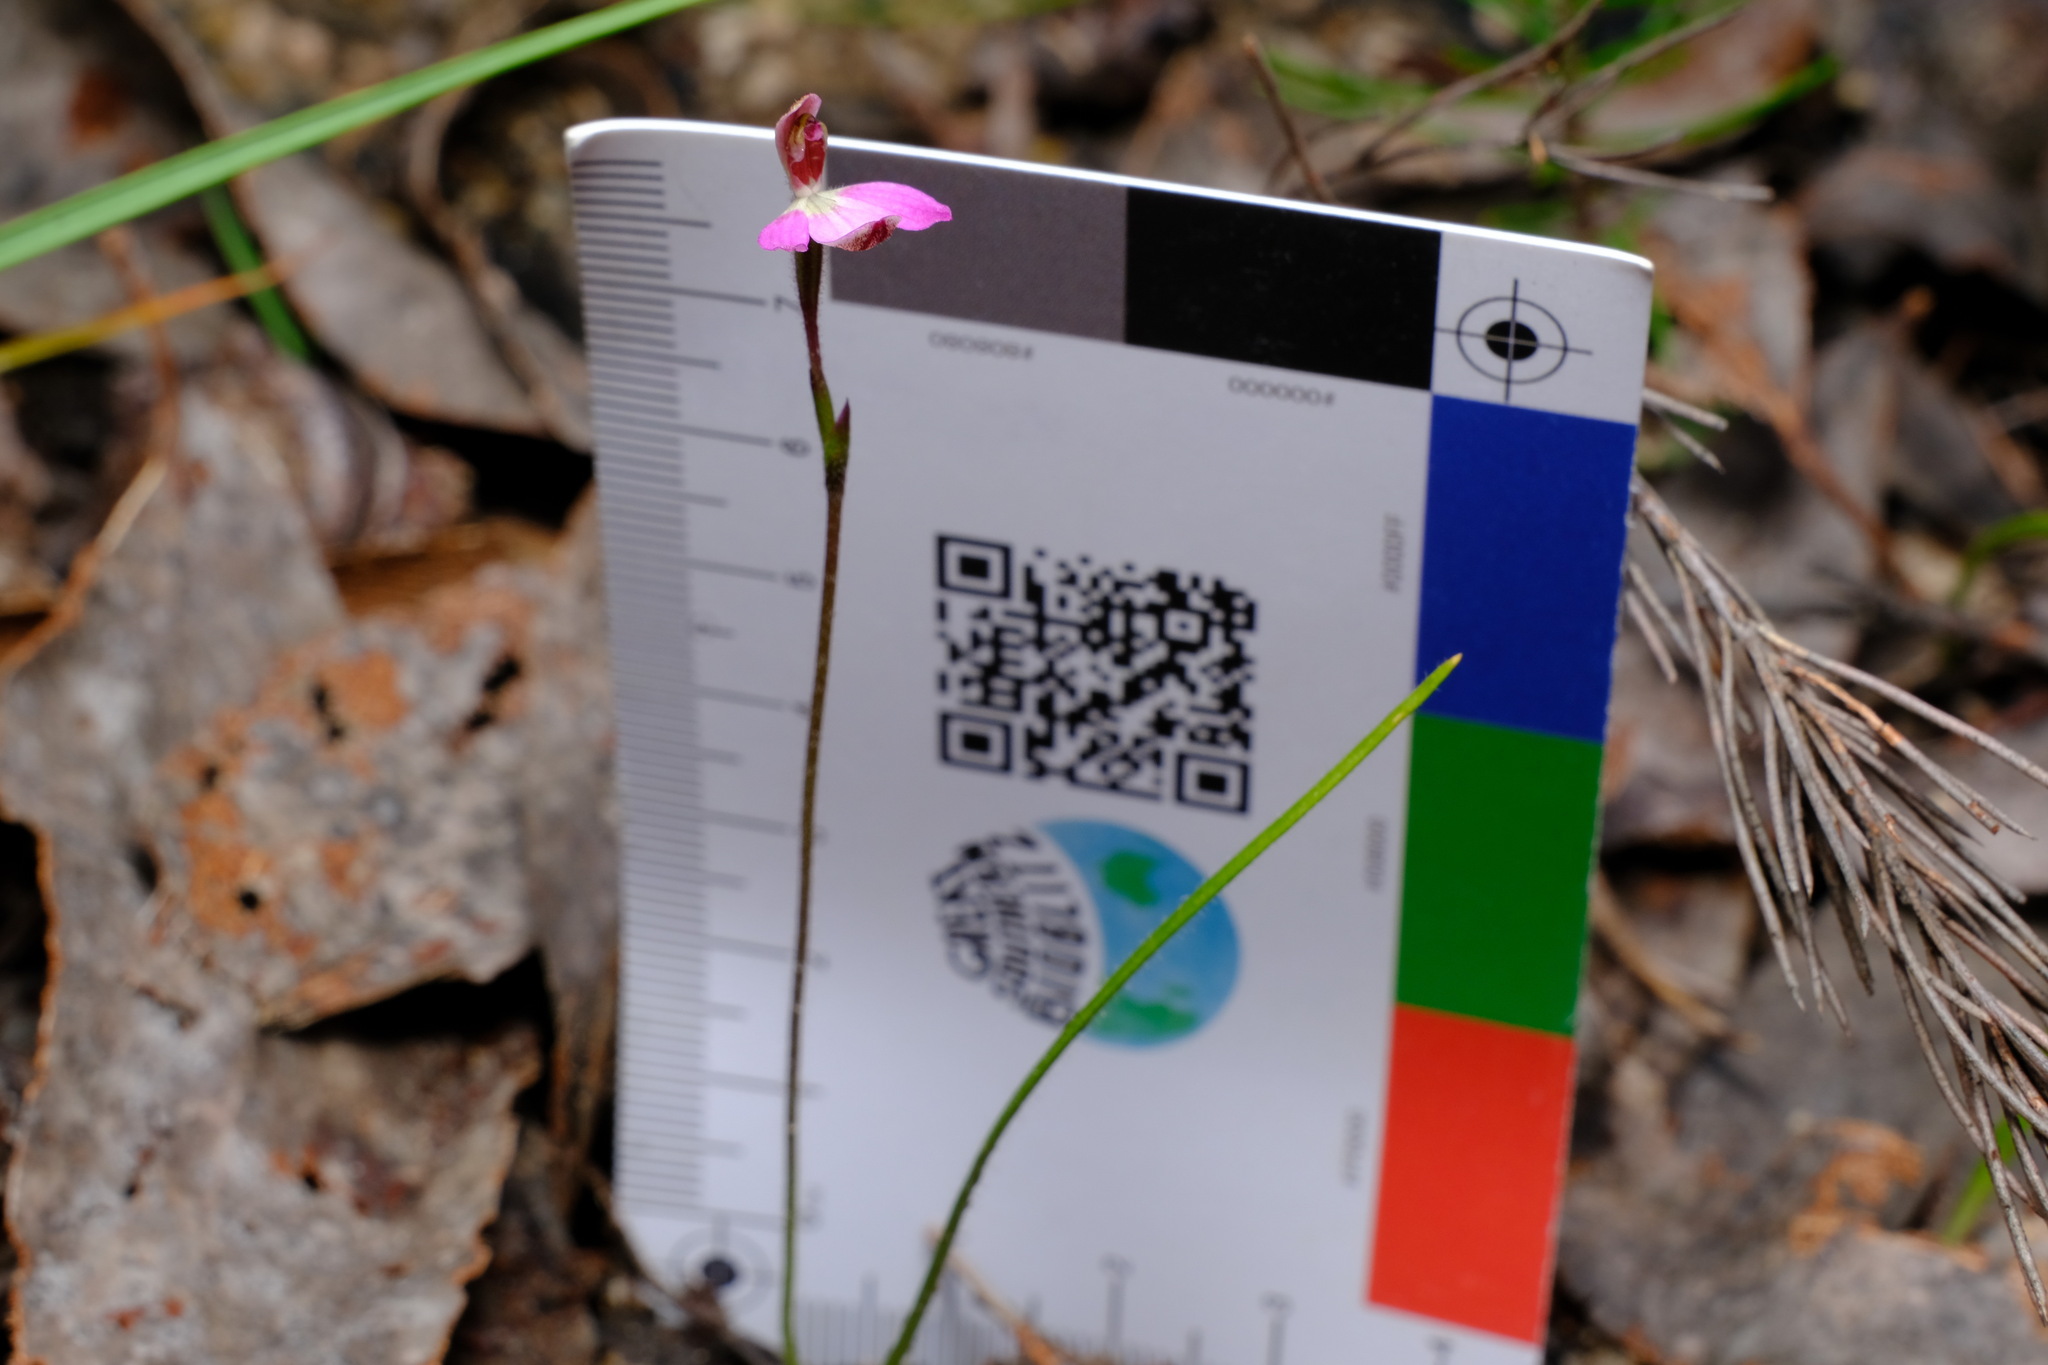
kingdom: Plantae
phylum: Tracheophyta
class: Liliopsida
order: Asparagales
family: Orchidaceae
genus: Caladenia
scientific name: Caladenia pusilla
